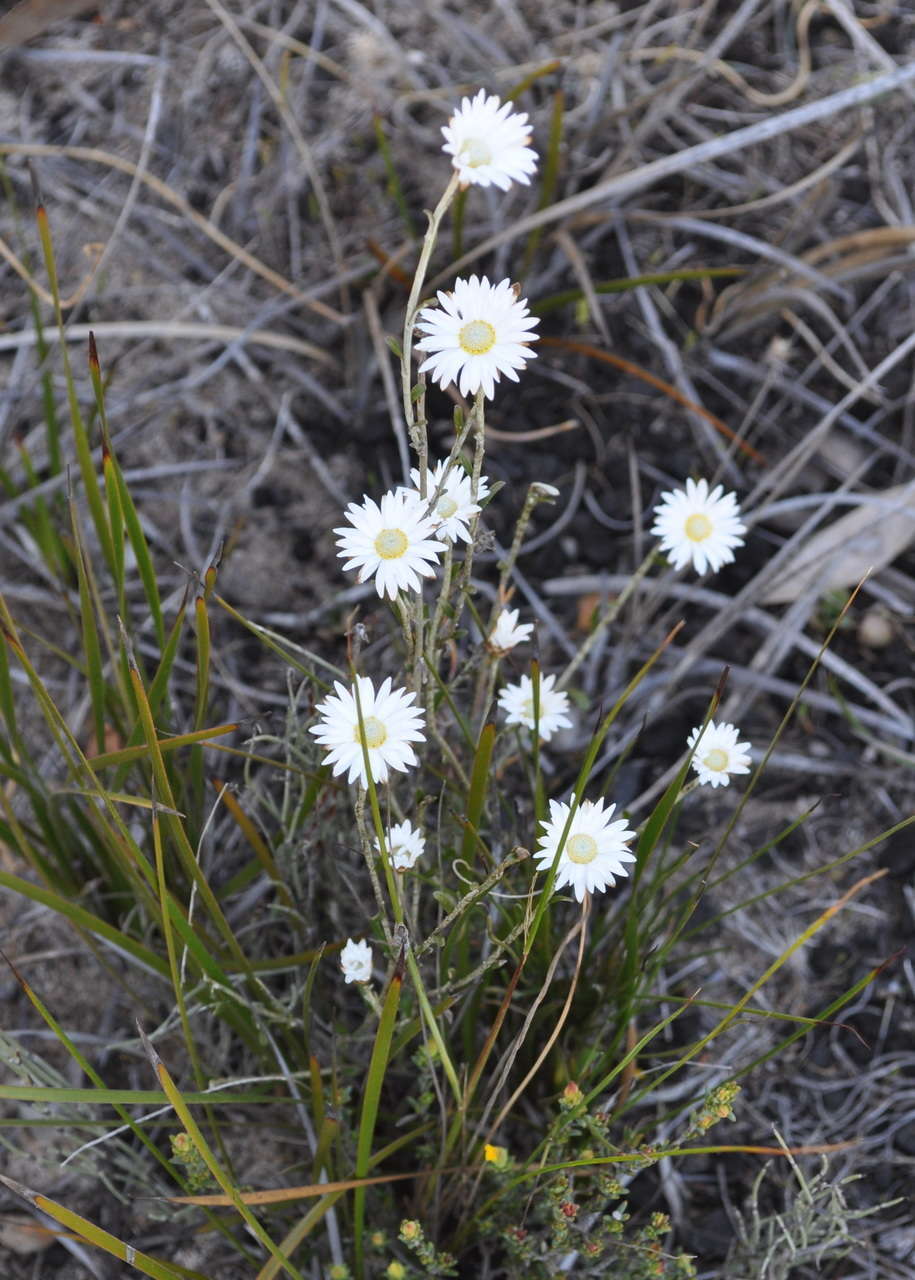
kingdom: Plantae
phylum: Tracheophyta
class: Magnoliopsida
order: Asterales
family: Asteraceae
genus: Argentipallium
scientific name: Argentipallium obtusifolium
